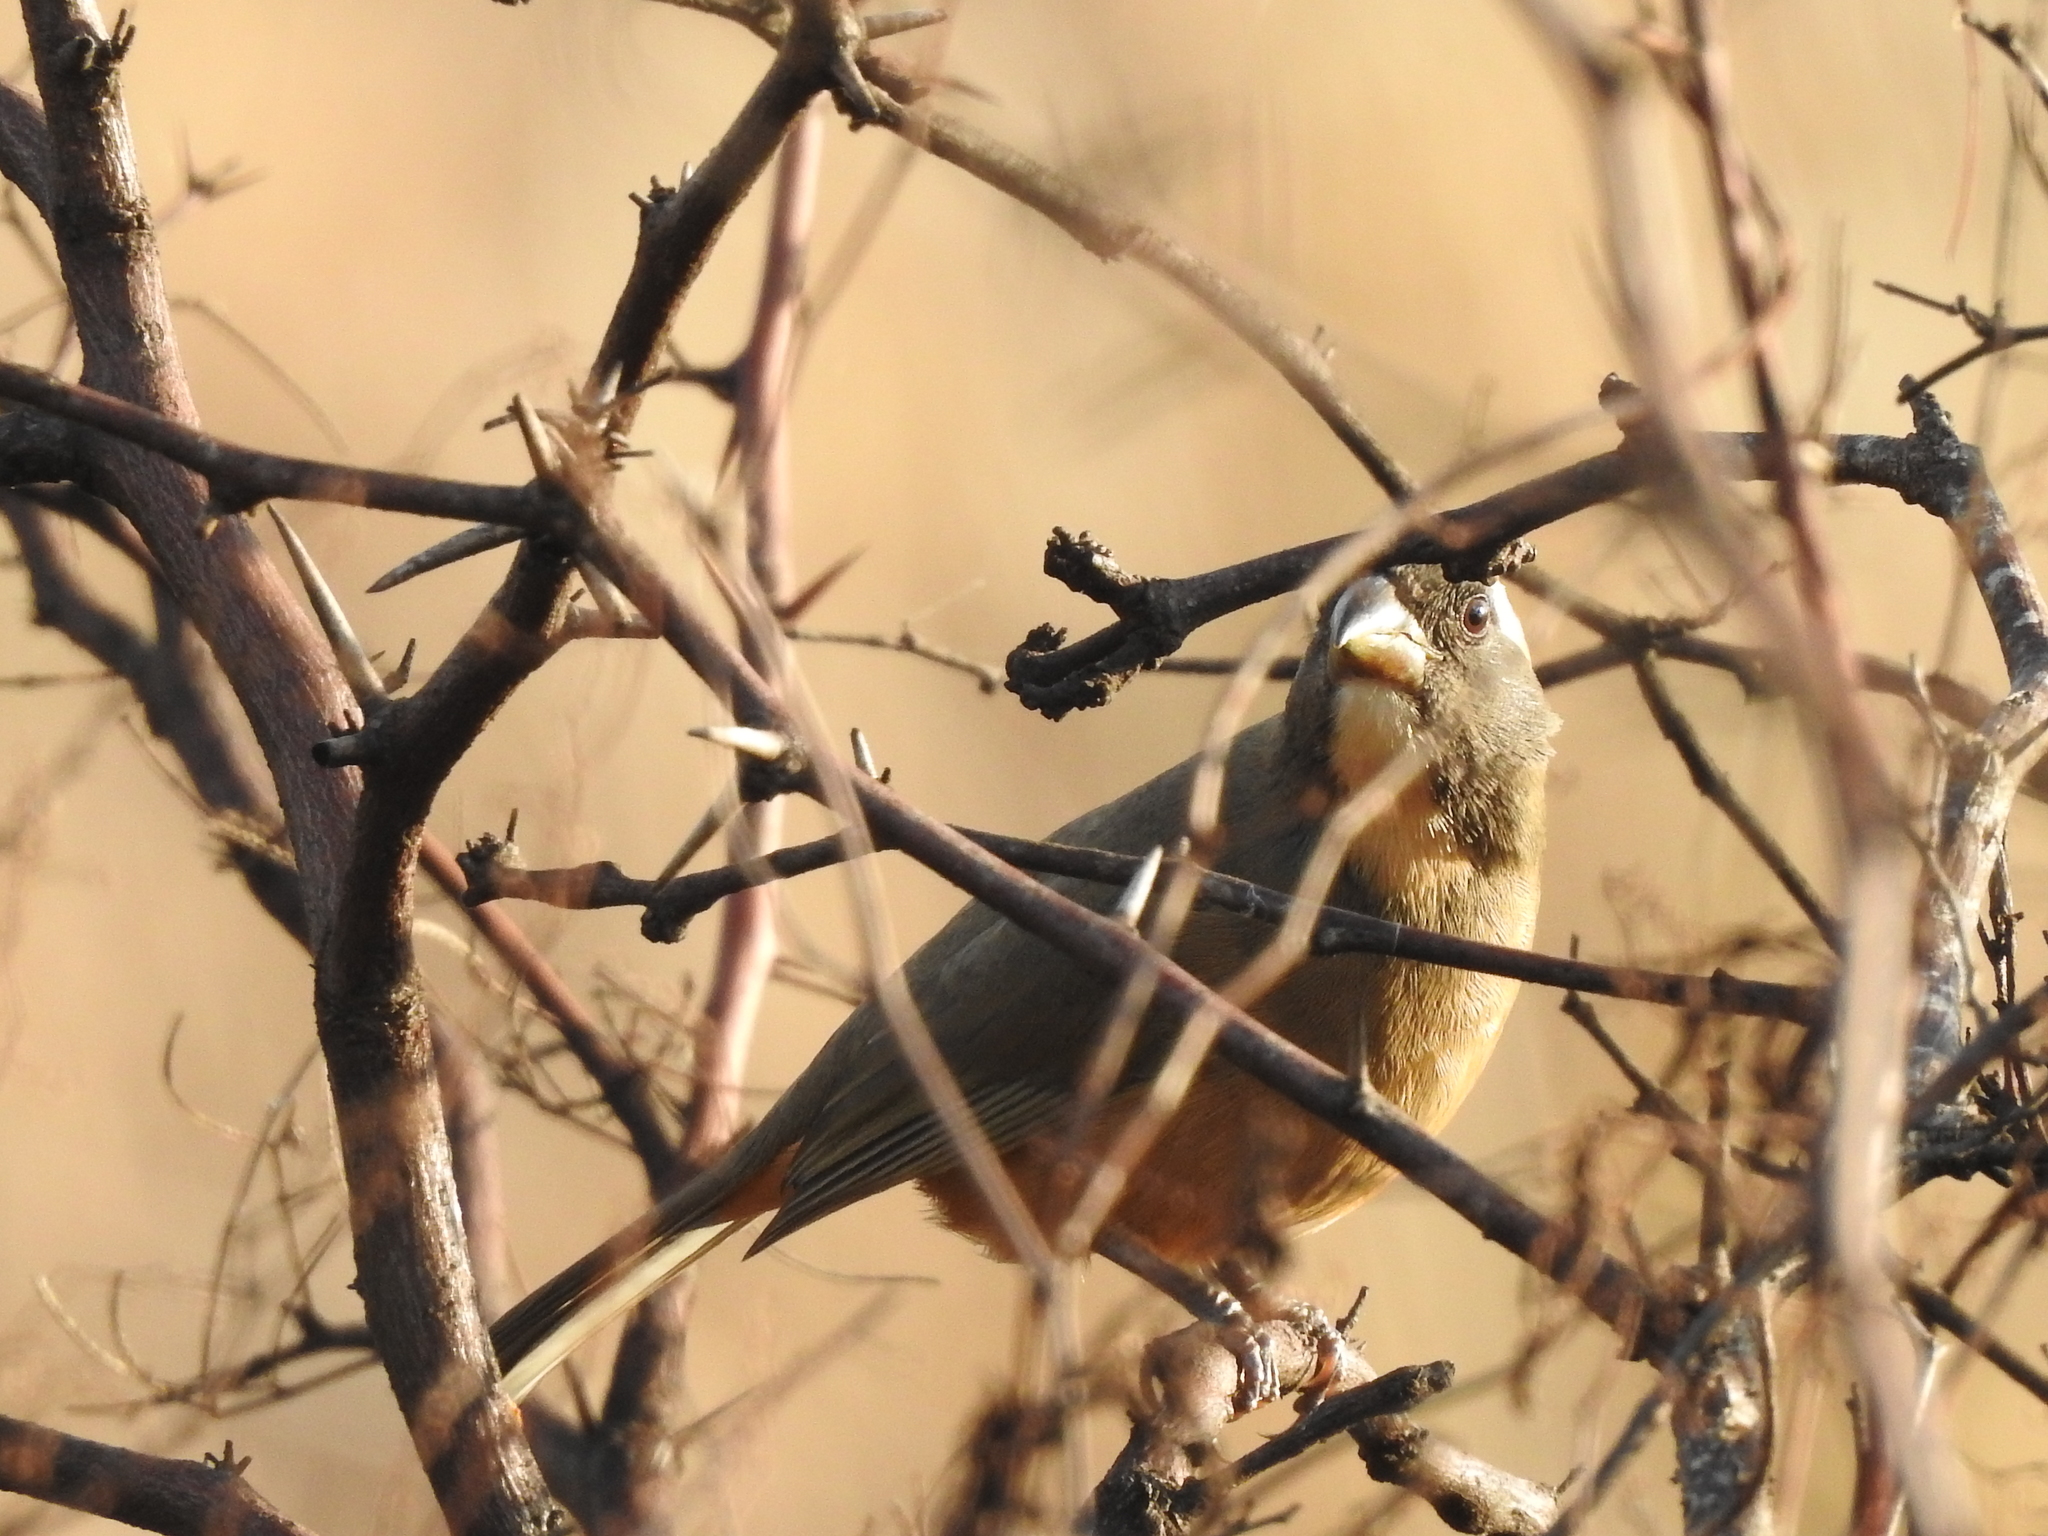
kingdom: Animalia
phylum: Chordata
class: Aves
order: Passeriformes
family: Thraupidae
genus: Saltator
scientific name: Saltator aurantiirostris
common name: Golden-billed saltator
